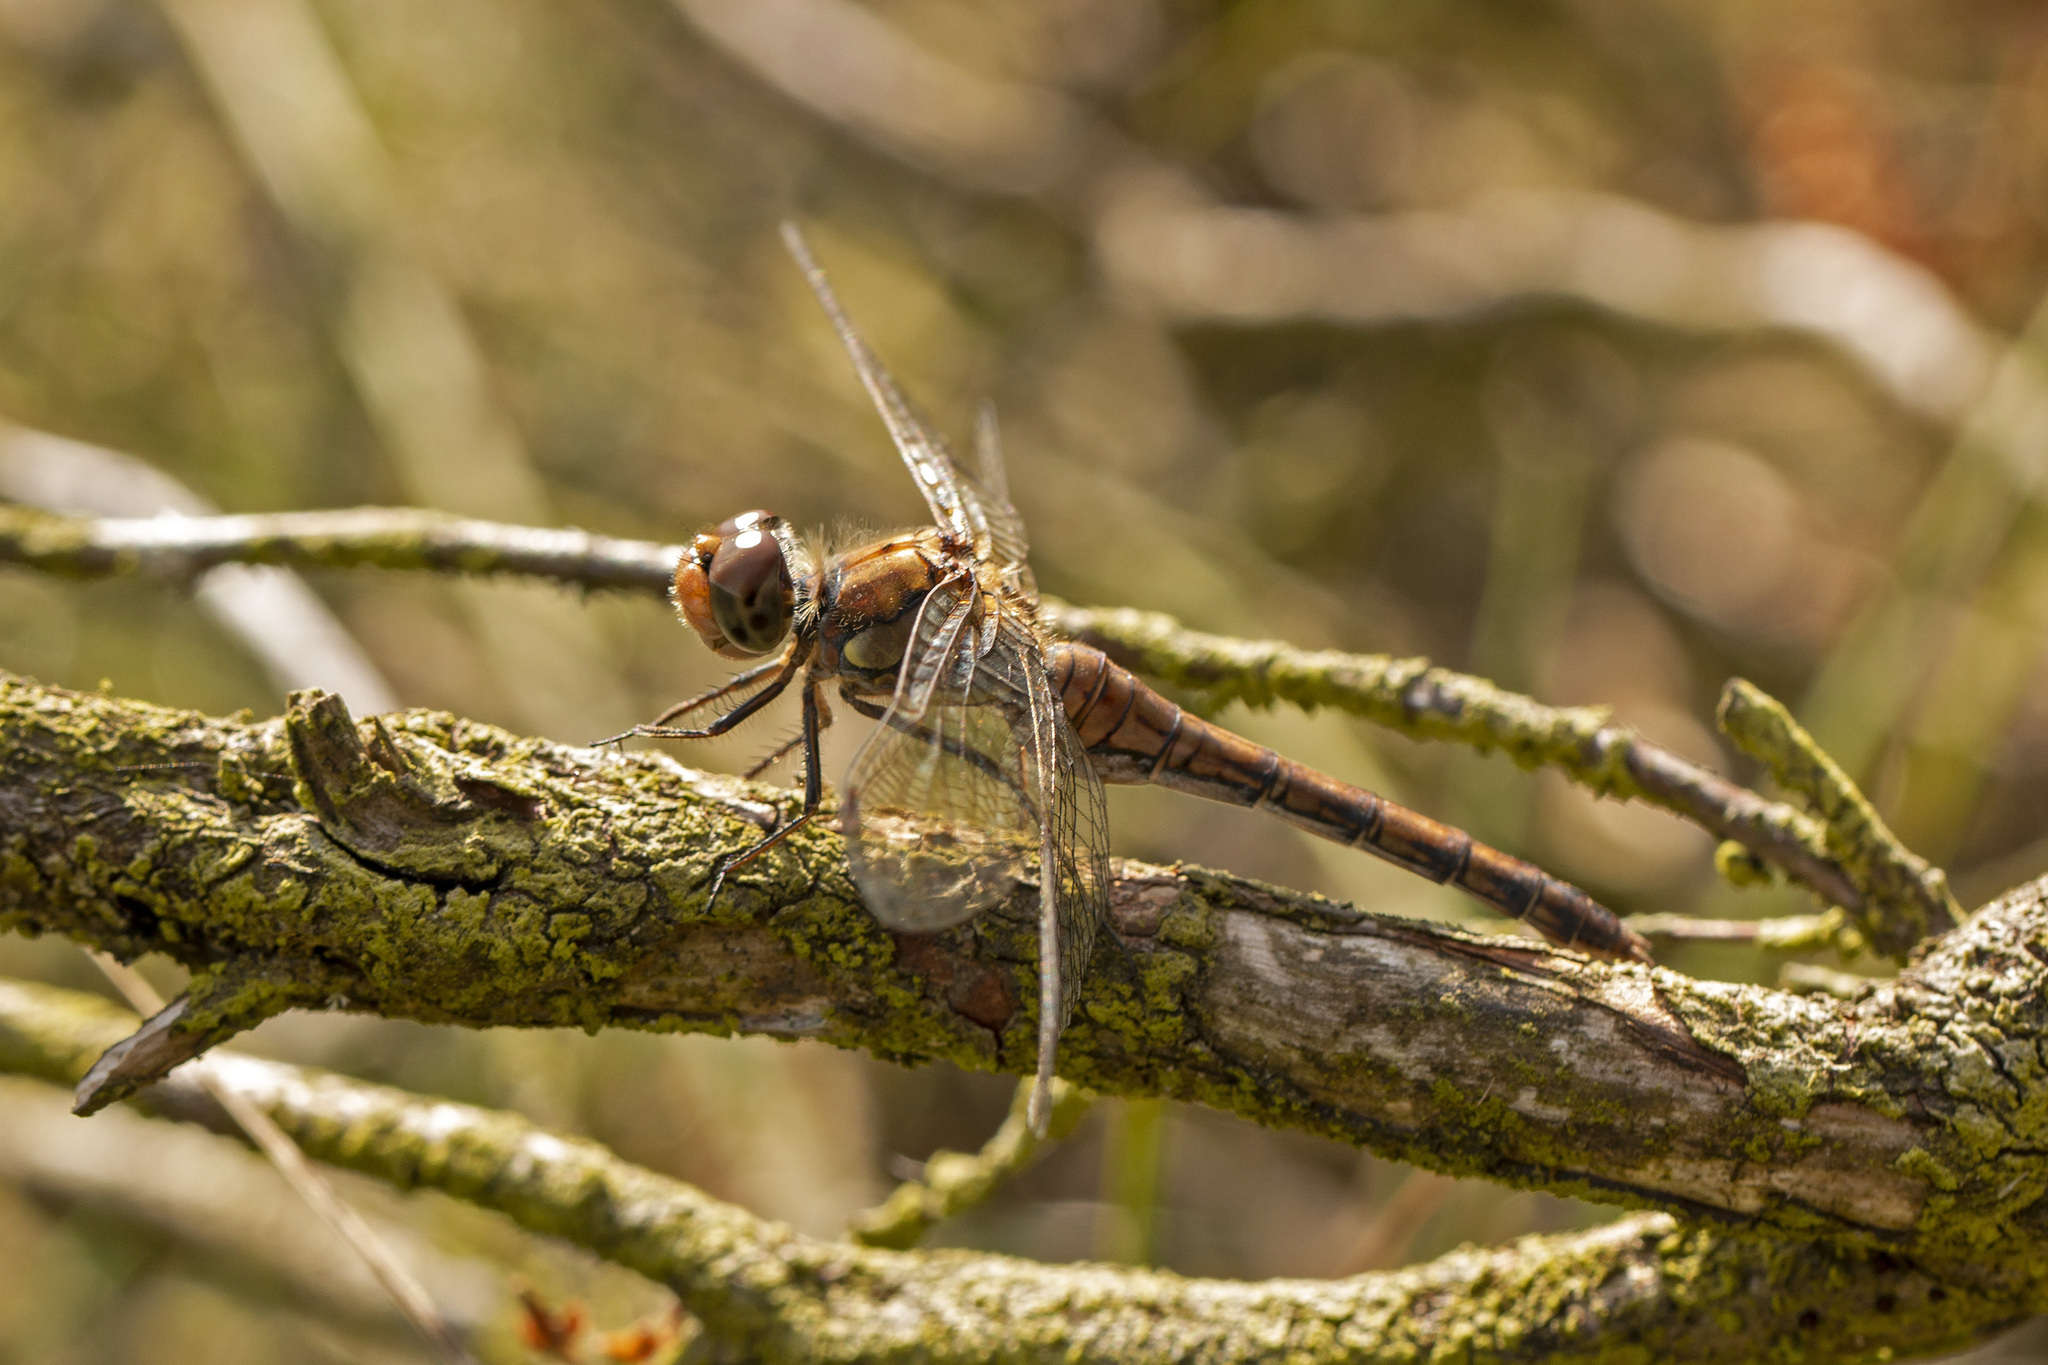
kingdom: Animalia
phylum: Arthropoda
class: Insecta
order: Odonata
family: Libellulidae
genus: Sympetrum
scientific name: Sympetrum striolatum
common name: Common darter
